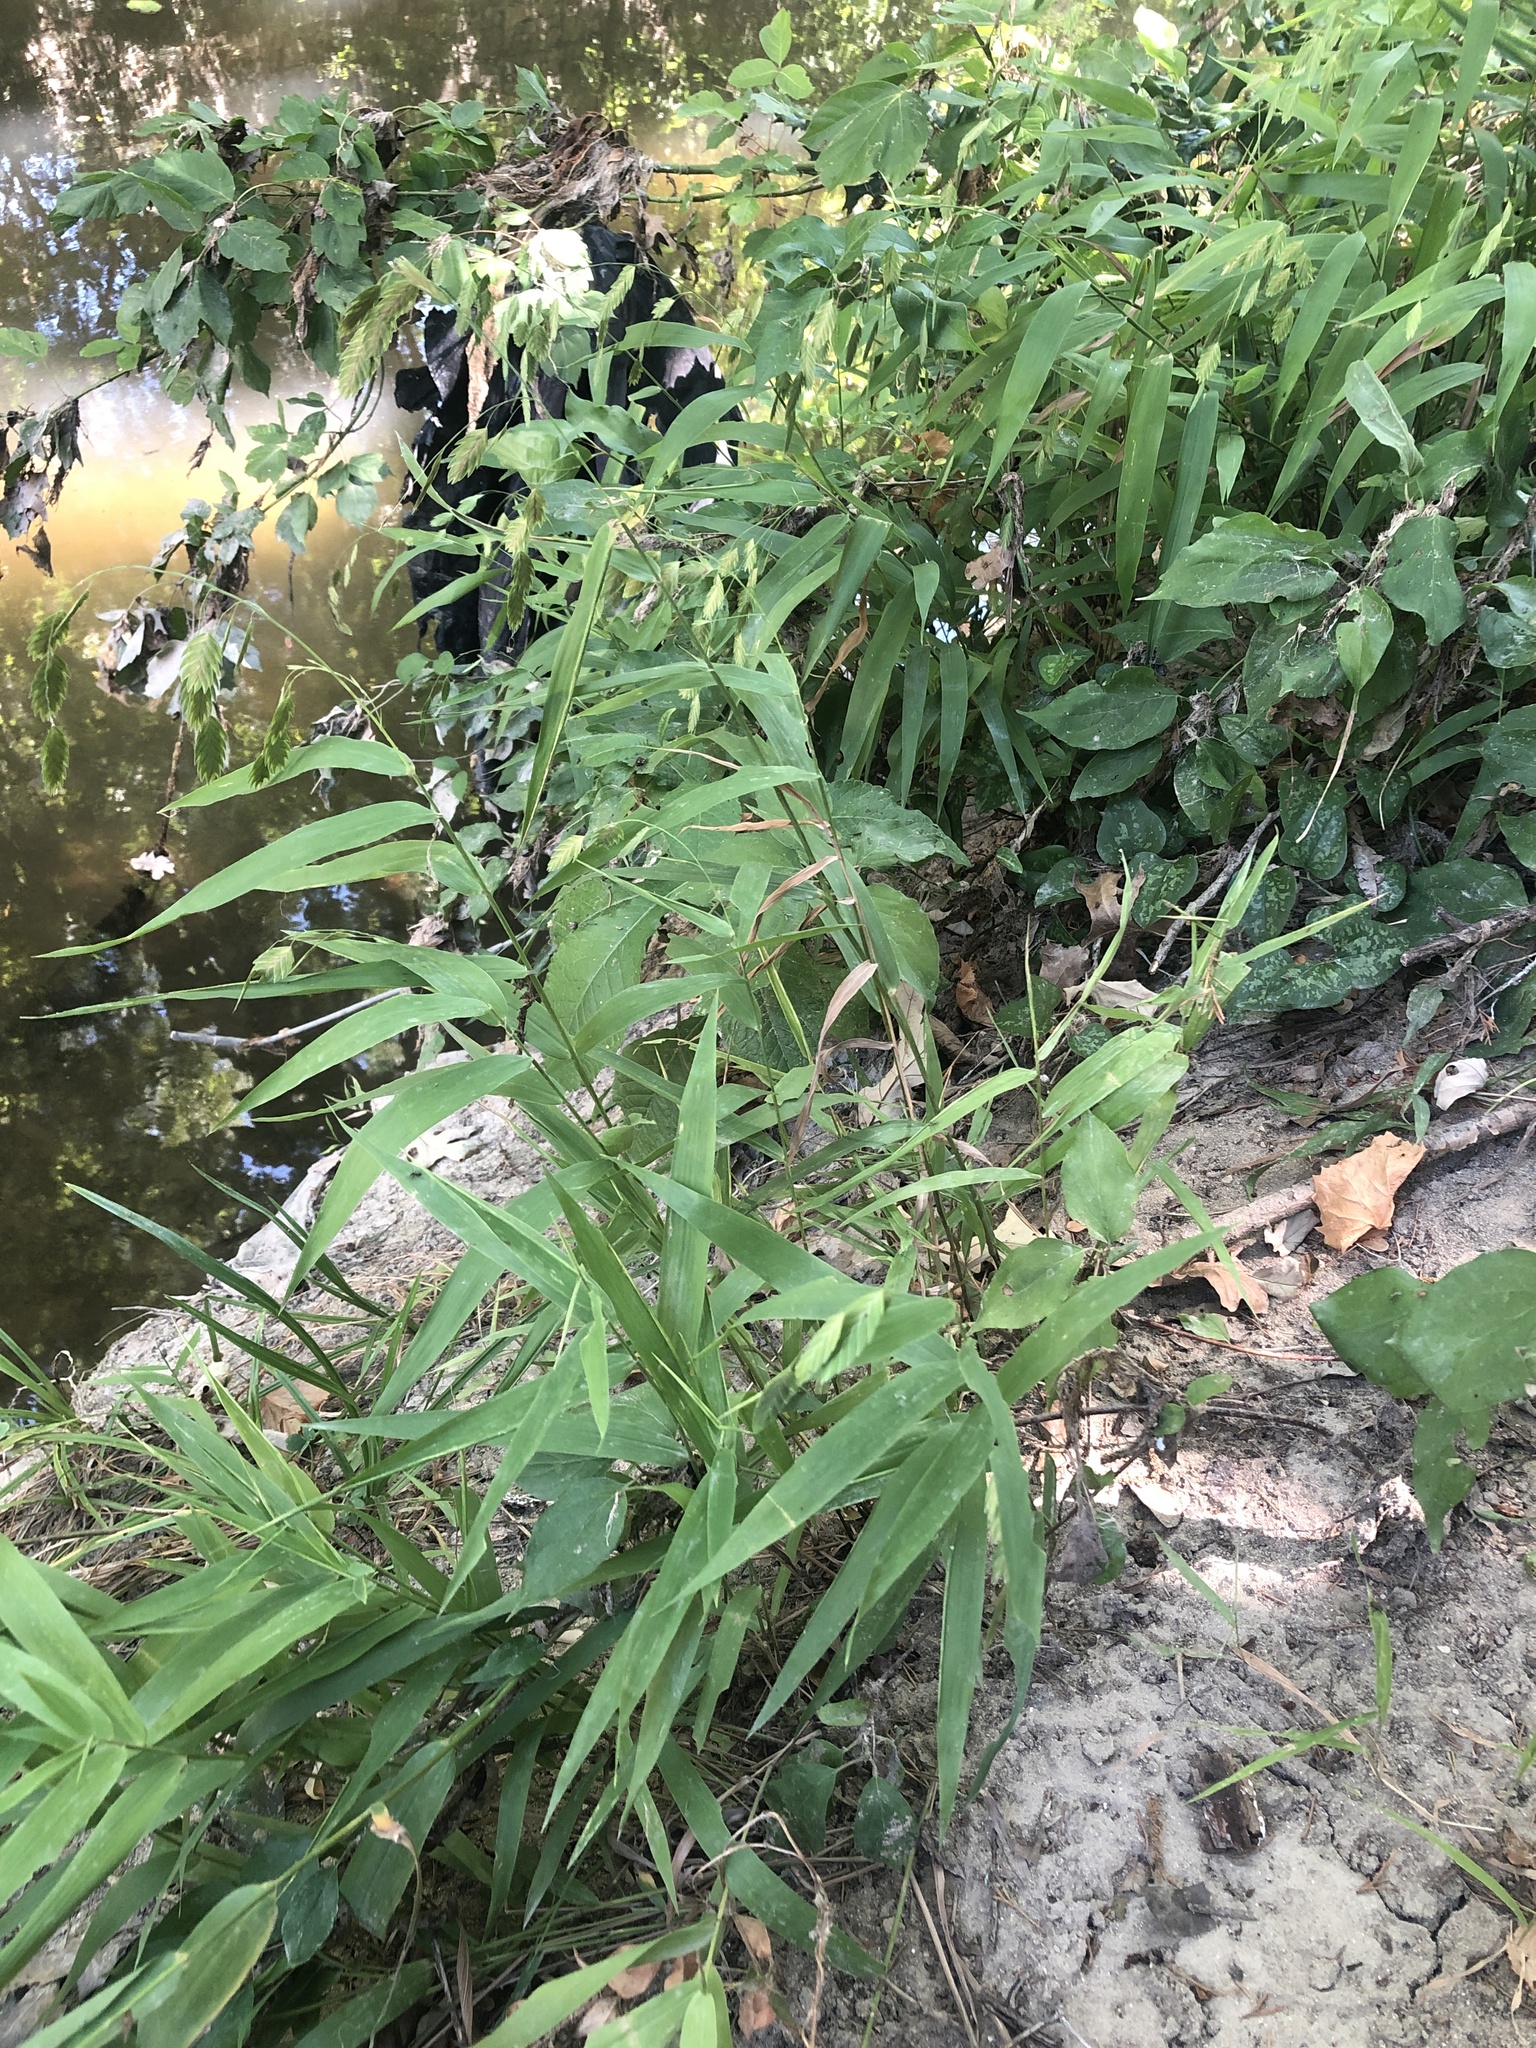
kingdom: Plantae
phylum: Tracheophyta
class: Liliopsida
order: Poales
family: Poaceae
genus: Chasmanthium
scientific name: Chasmanthium latifolium
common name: Broad-leaved chasmanthium
